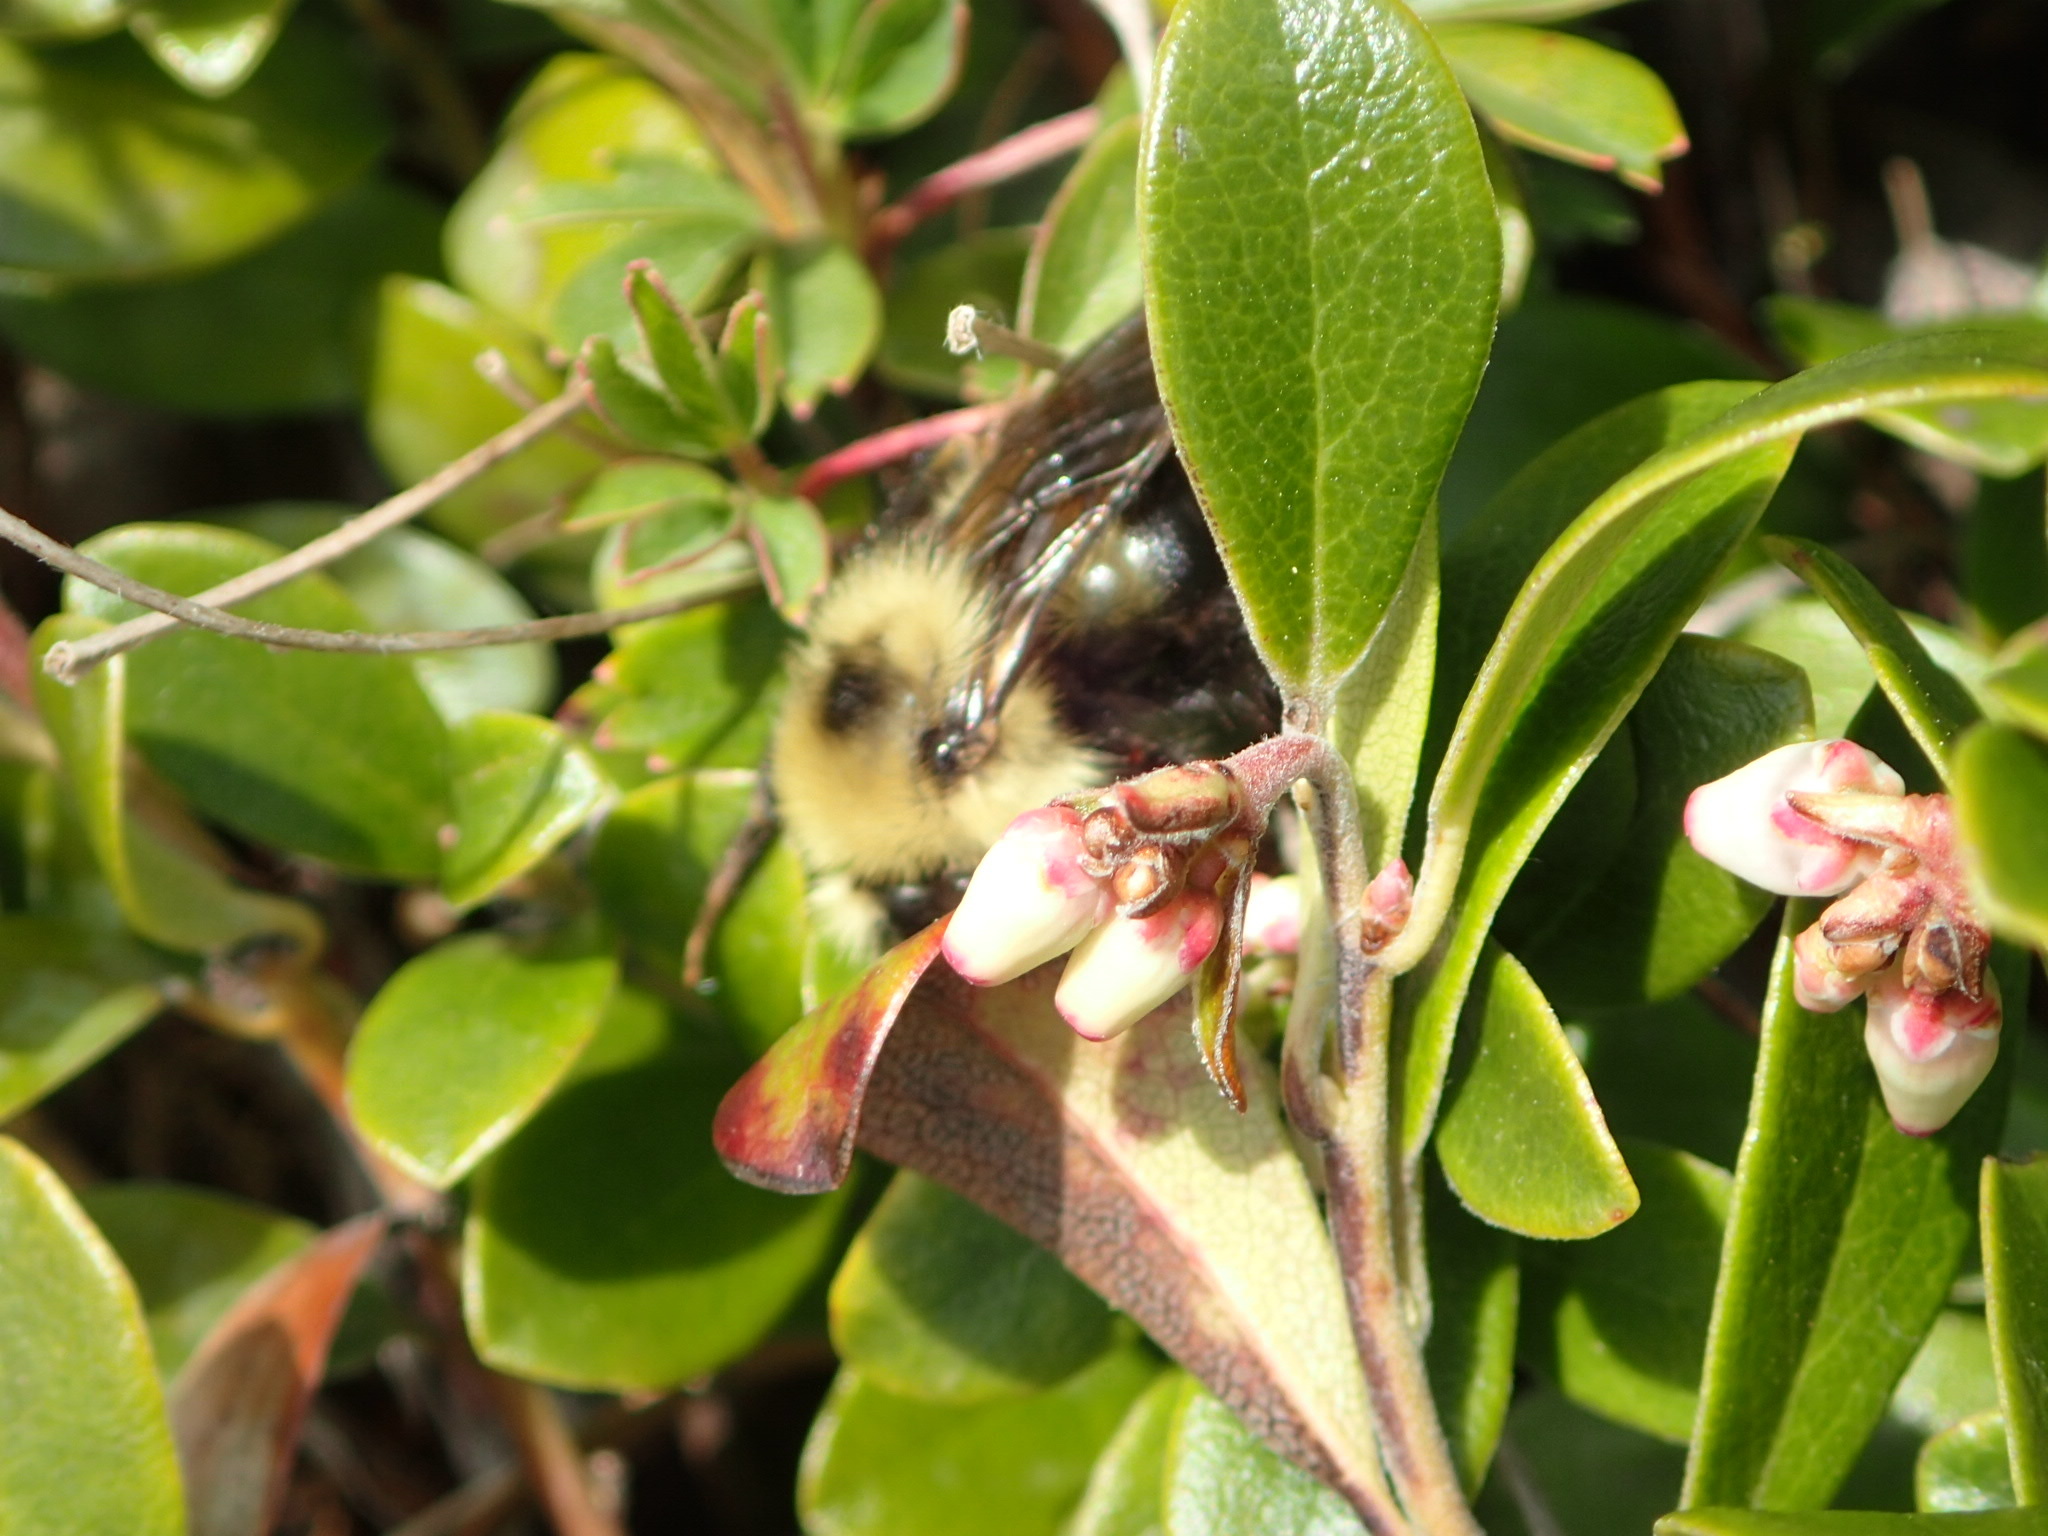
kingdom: Animalia
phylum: Arthropoda
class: Insecta
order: Hymenoptera
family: Apidae
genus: Bombus
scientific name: Bombus flavidus
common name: Fernald cuckoo bumble bee
